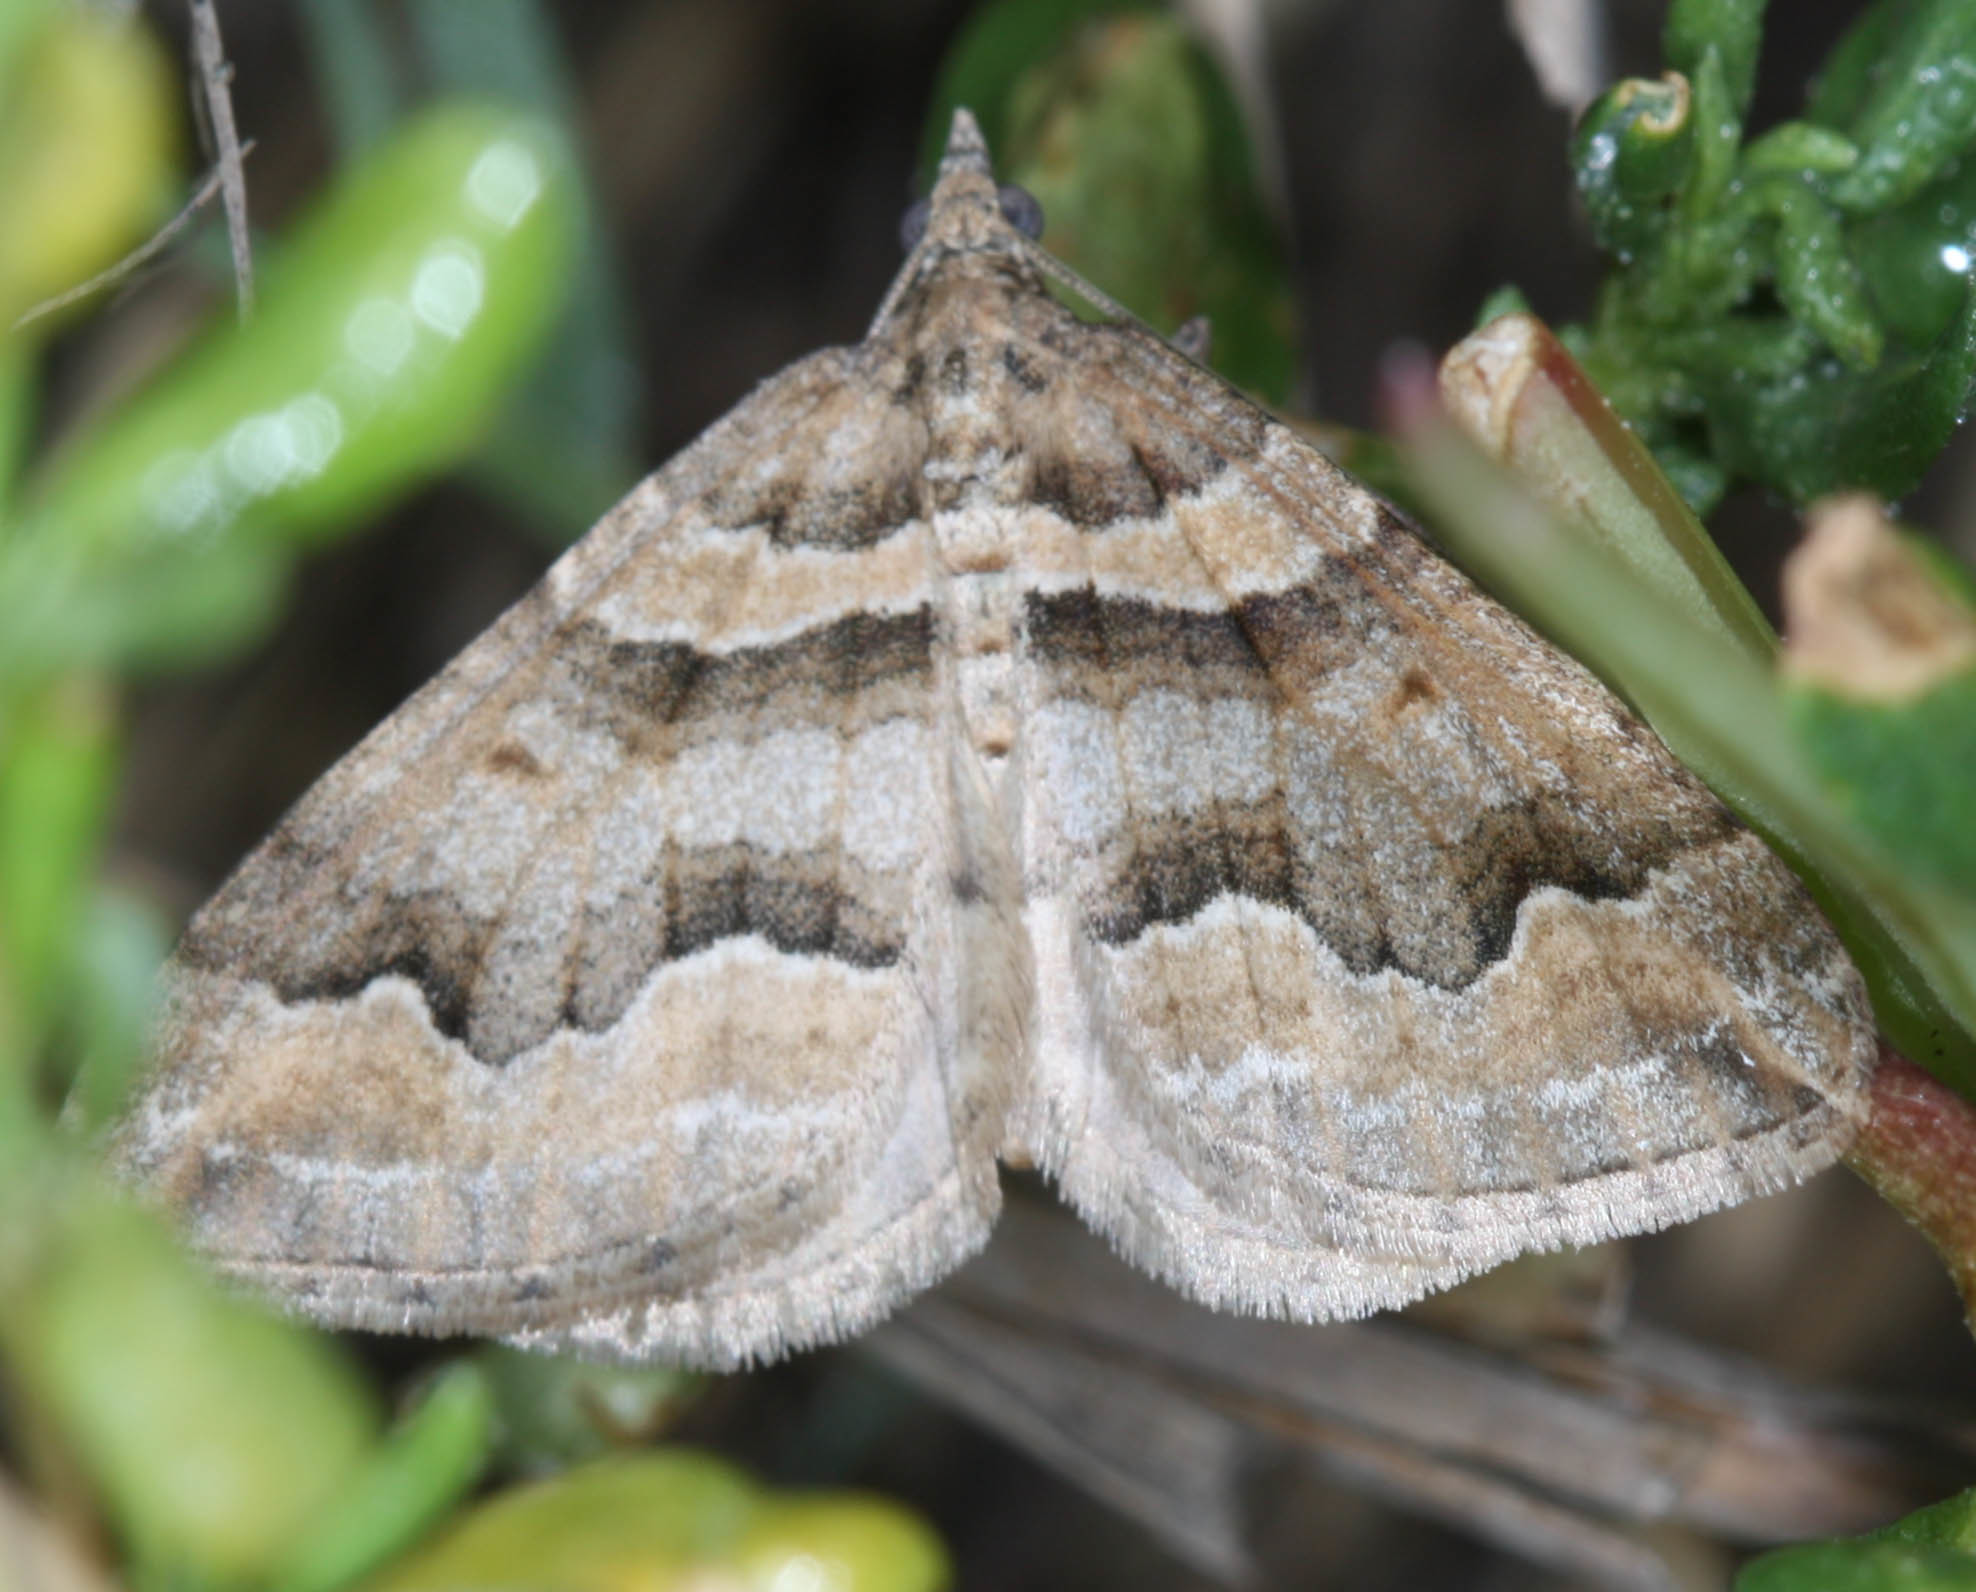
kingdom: Animalia
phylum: Arthropoda
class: Insecta
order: Lepidoptera
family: Geometridae
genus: Perizoma
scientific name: Perizoma epictata
